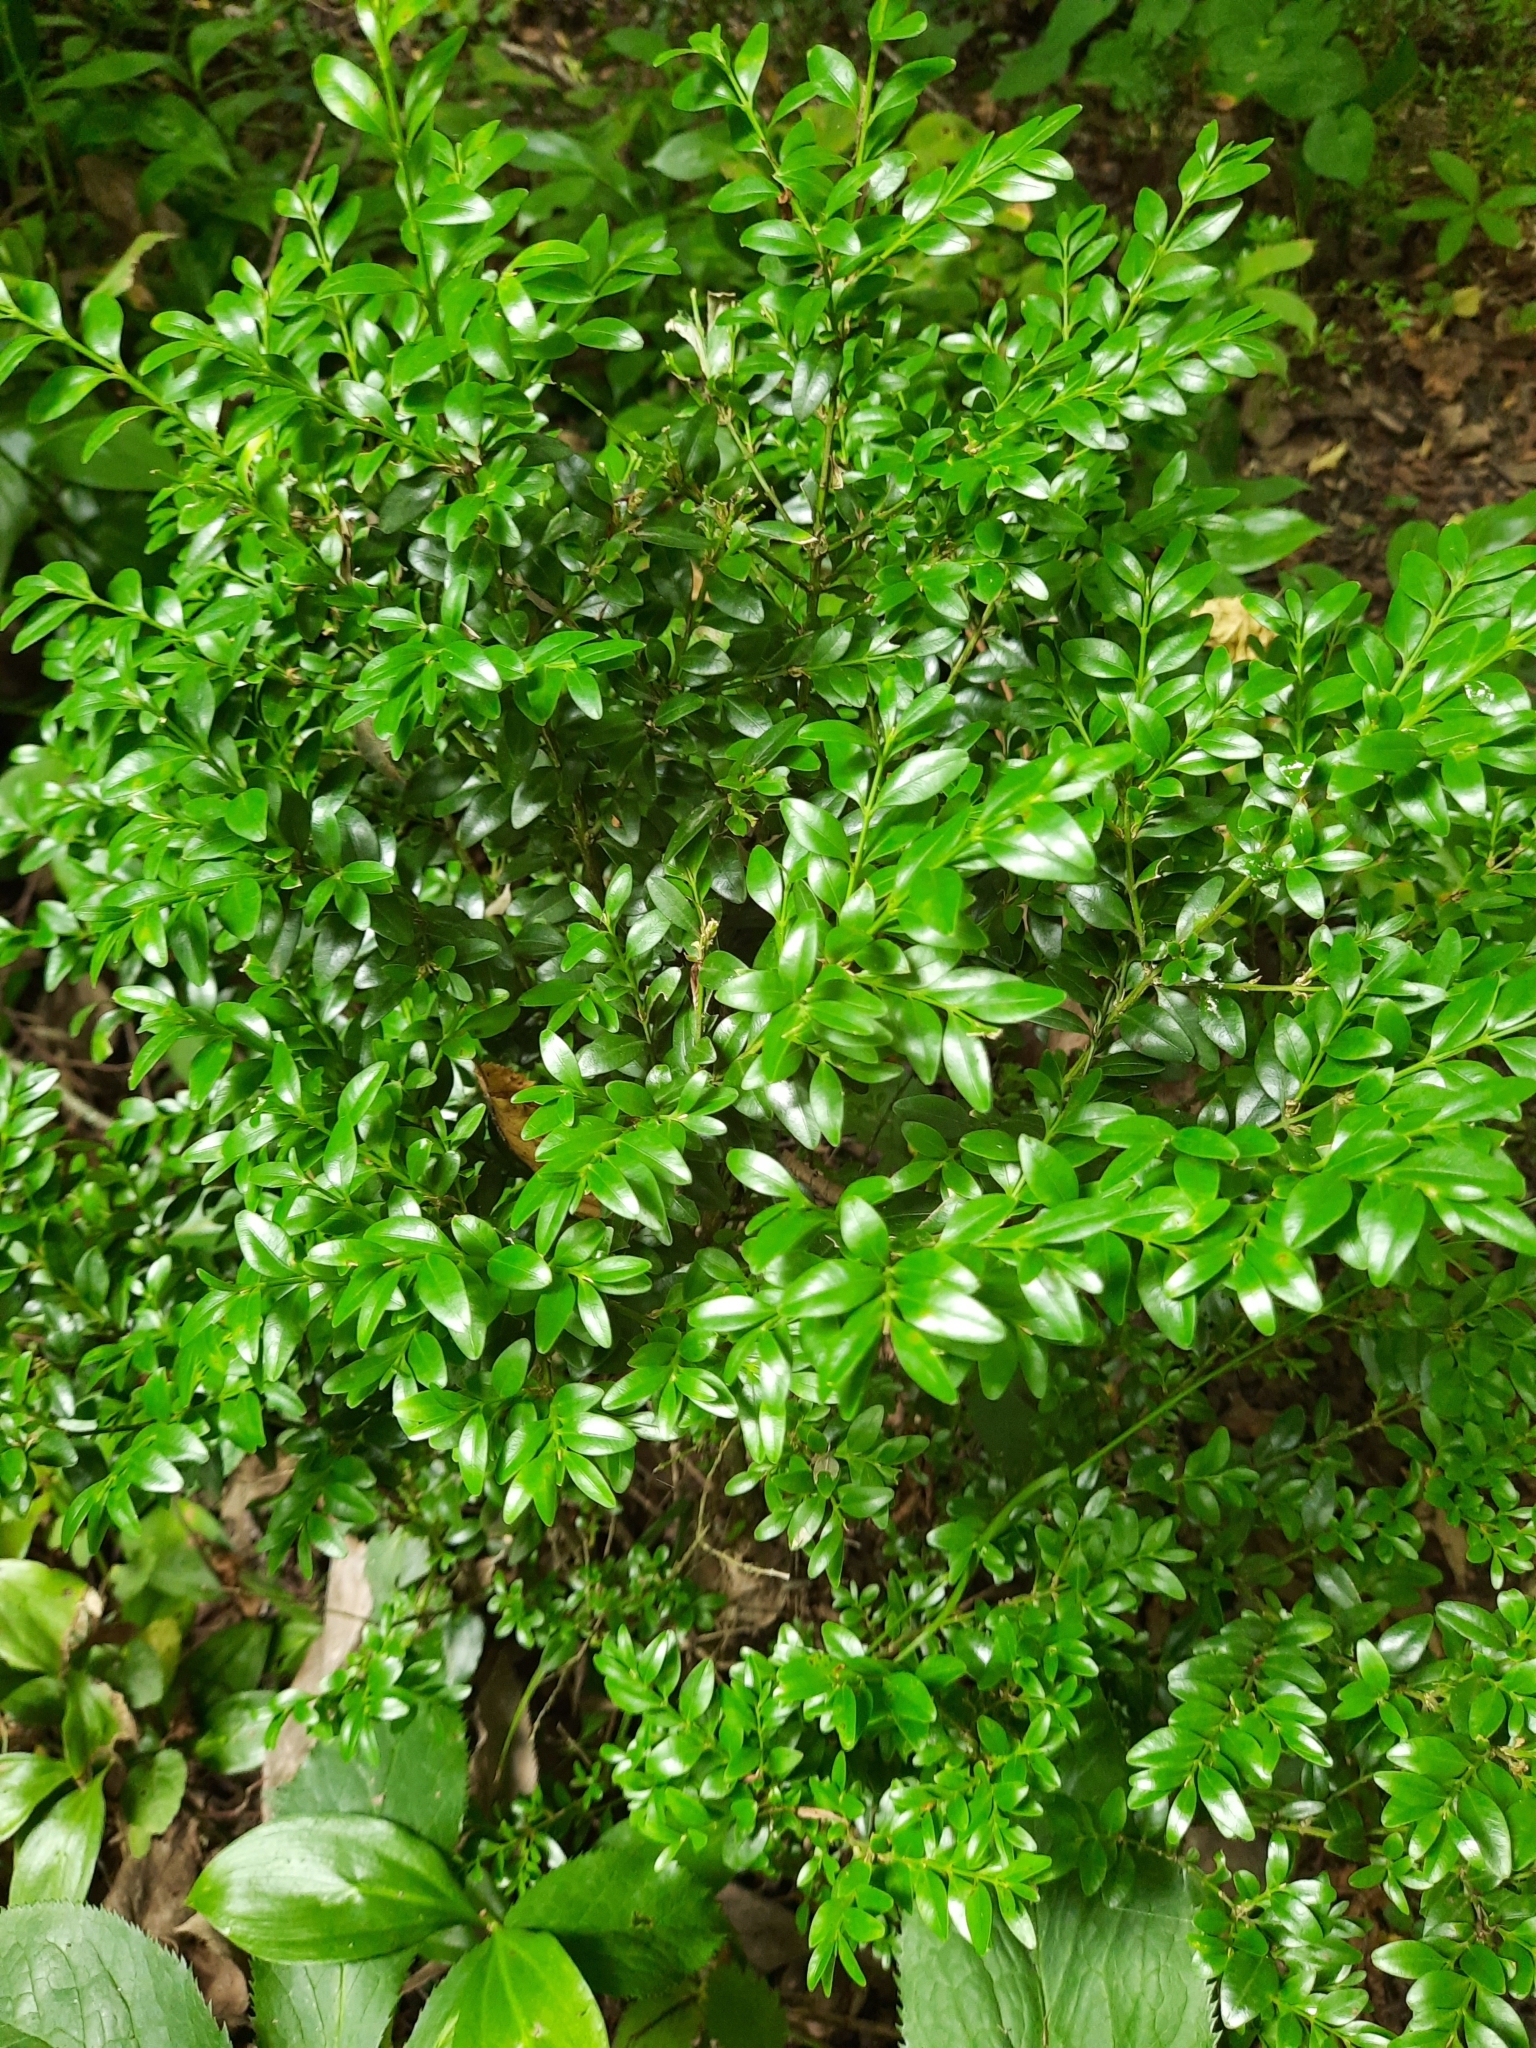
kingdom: Plantae
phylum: Tracheophyta
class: Magnoliopsida
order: Buxales
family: Buxaceae
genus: Buxus
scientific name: Buxus sempervirens
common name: Box
